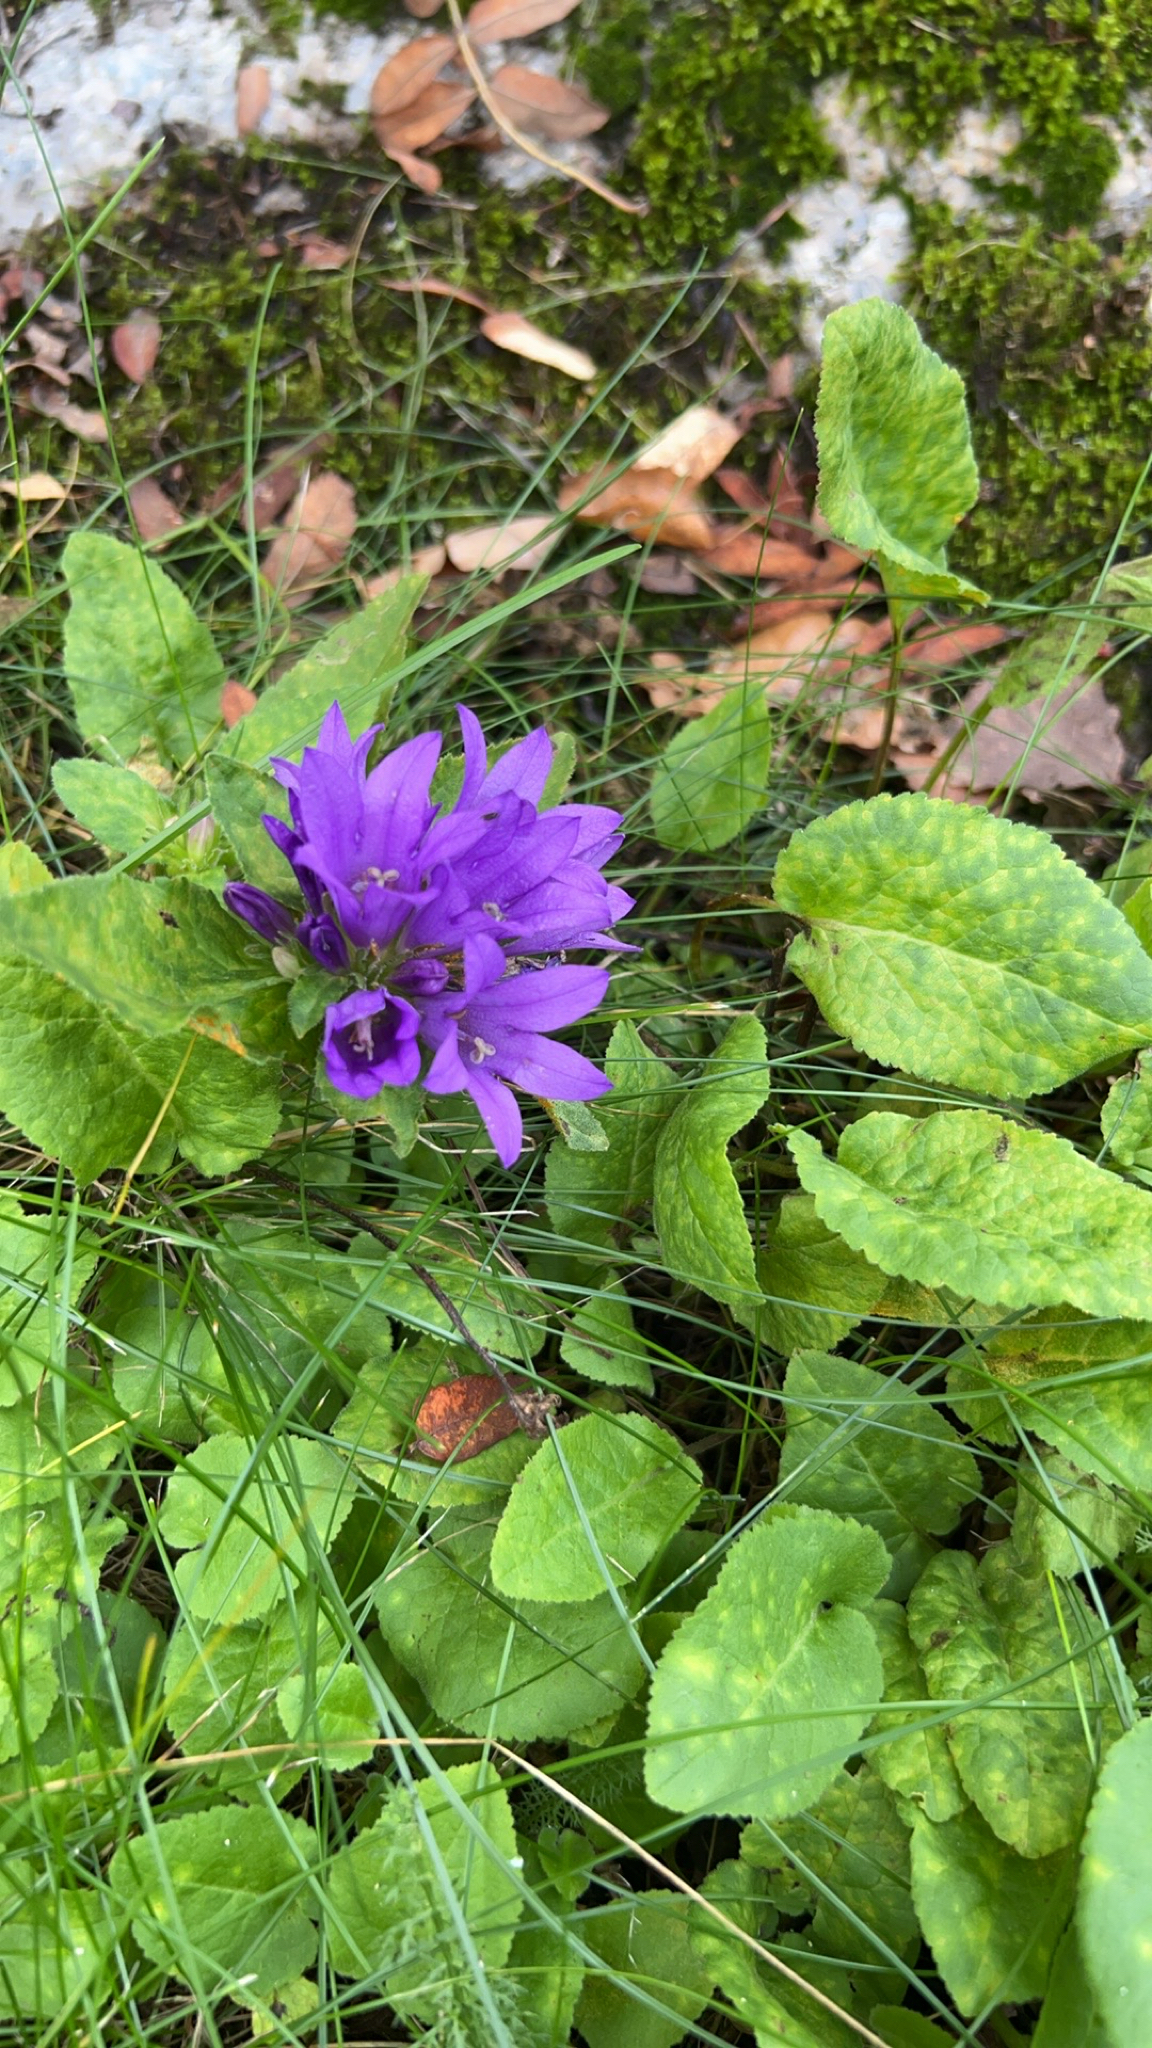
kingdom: Plantae
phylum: Tracheophyta
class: Magnoliopsida
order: Asterales
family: Campanulaceae
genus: Campanula
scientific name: Campanula glomerata
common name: Clustered bellflower
